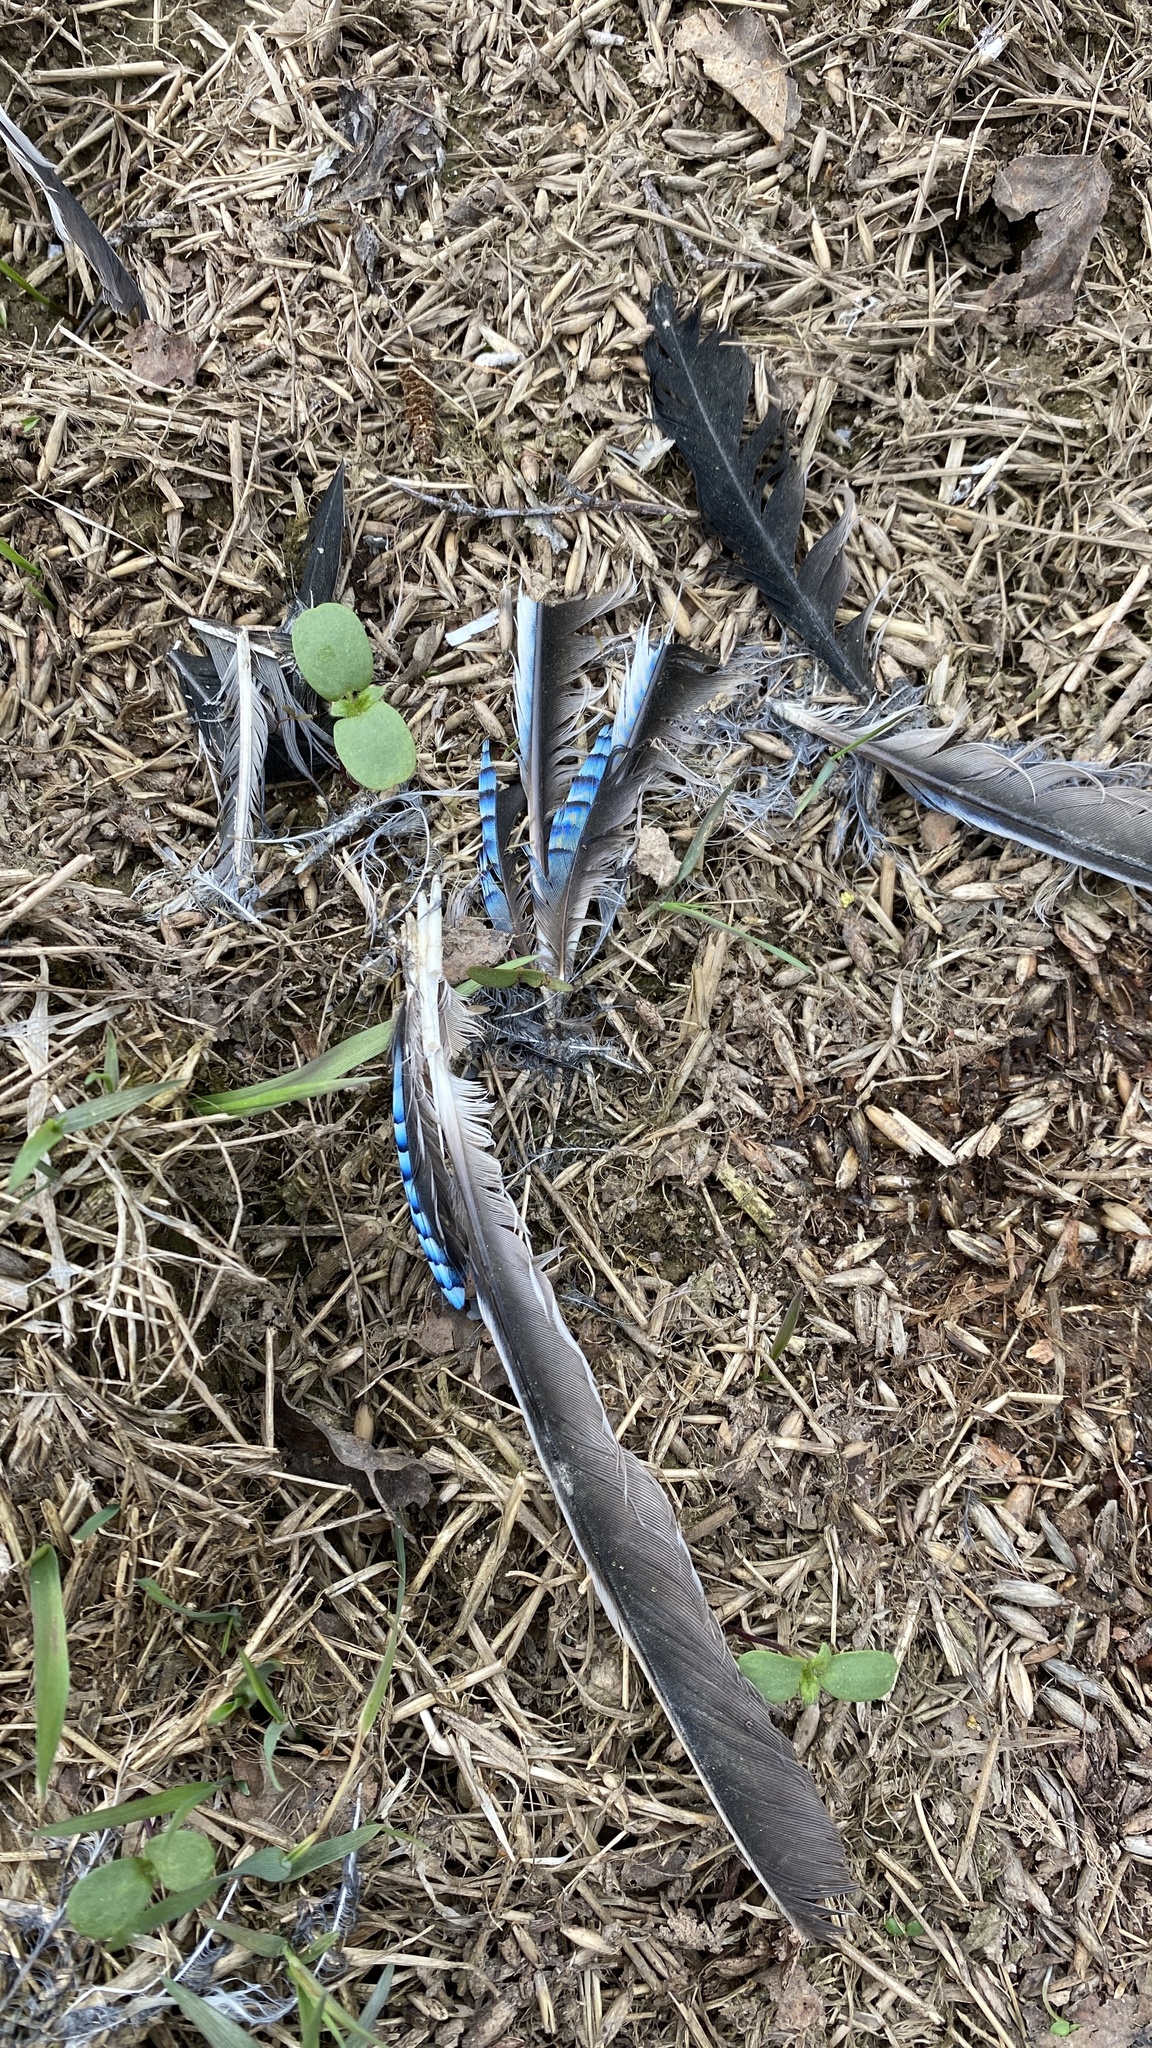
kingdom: Animalia
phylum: Chordata
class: Aves
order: Passeriformes
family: Corvidae
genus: Garrulus
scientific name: Garrulus glandarius
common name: Eurasian jay
